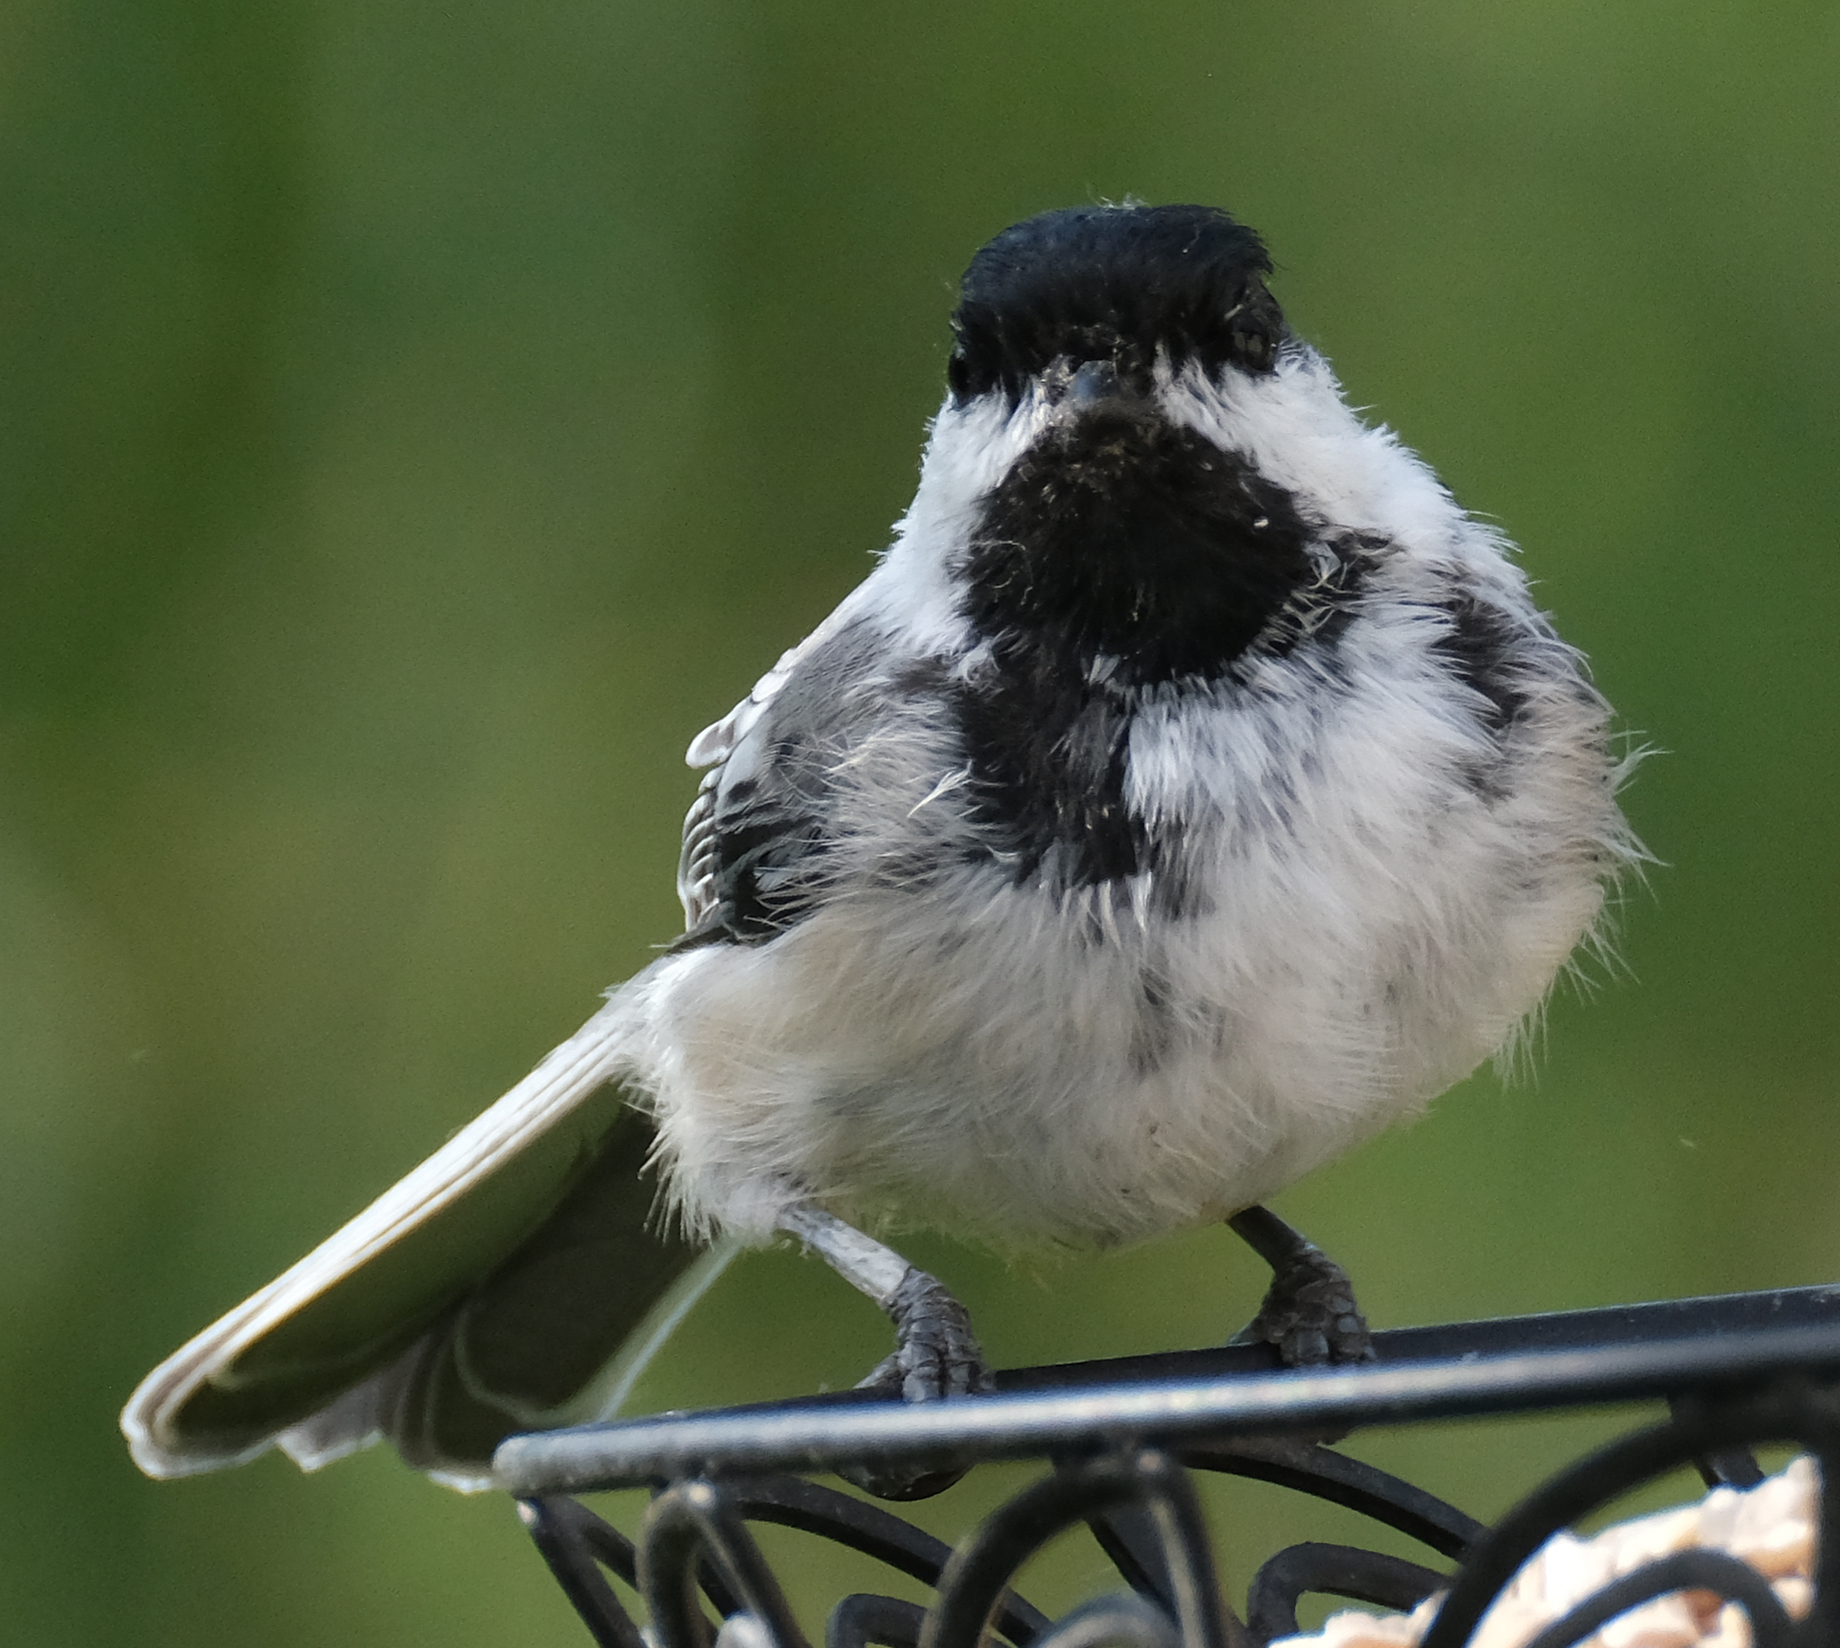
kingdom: Animalia
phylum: Chordata
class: Aves
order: Passeriformes
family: Paridae
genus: Poecile
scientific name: Poecile atricapillus
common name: Black-capped chickadee
